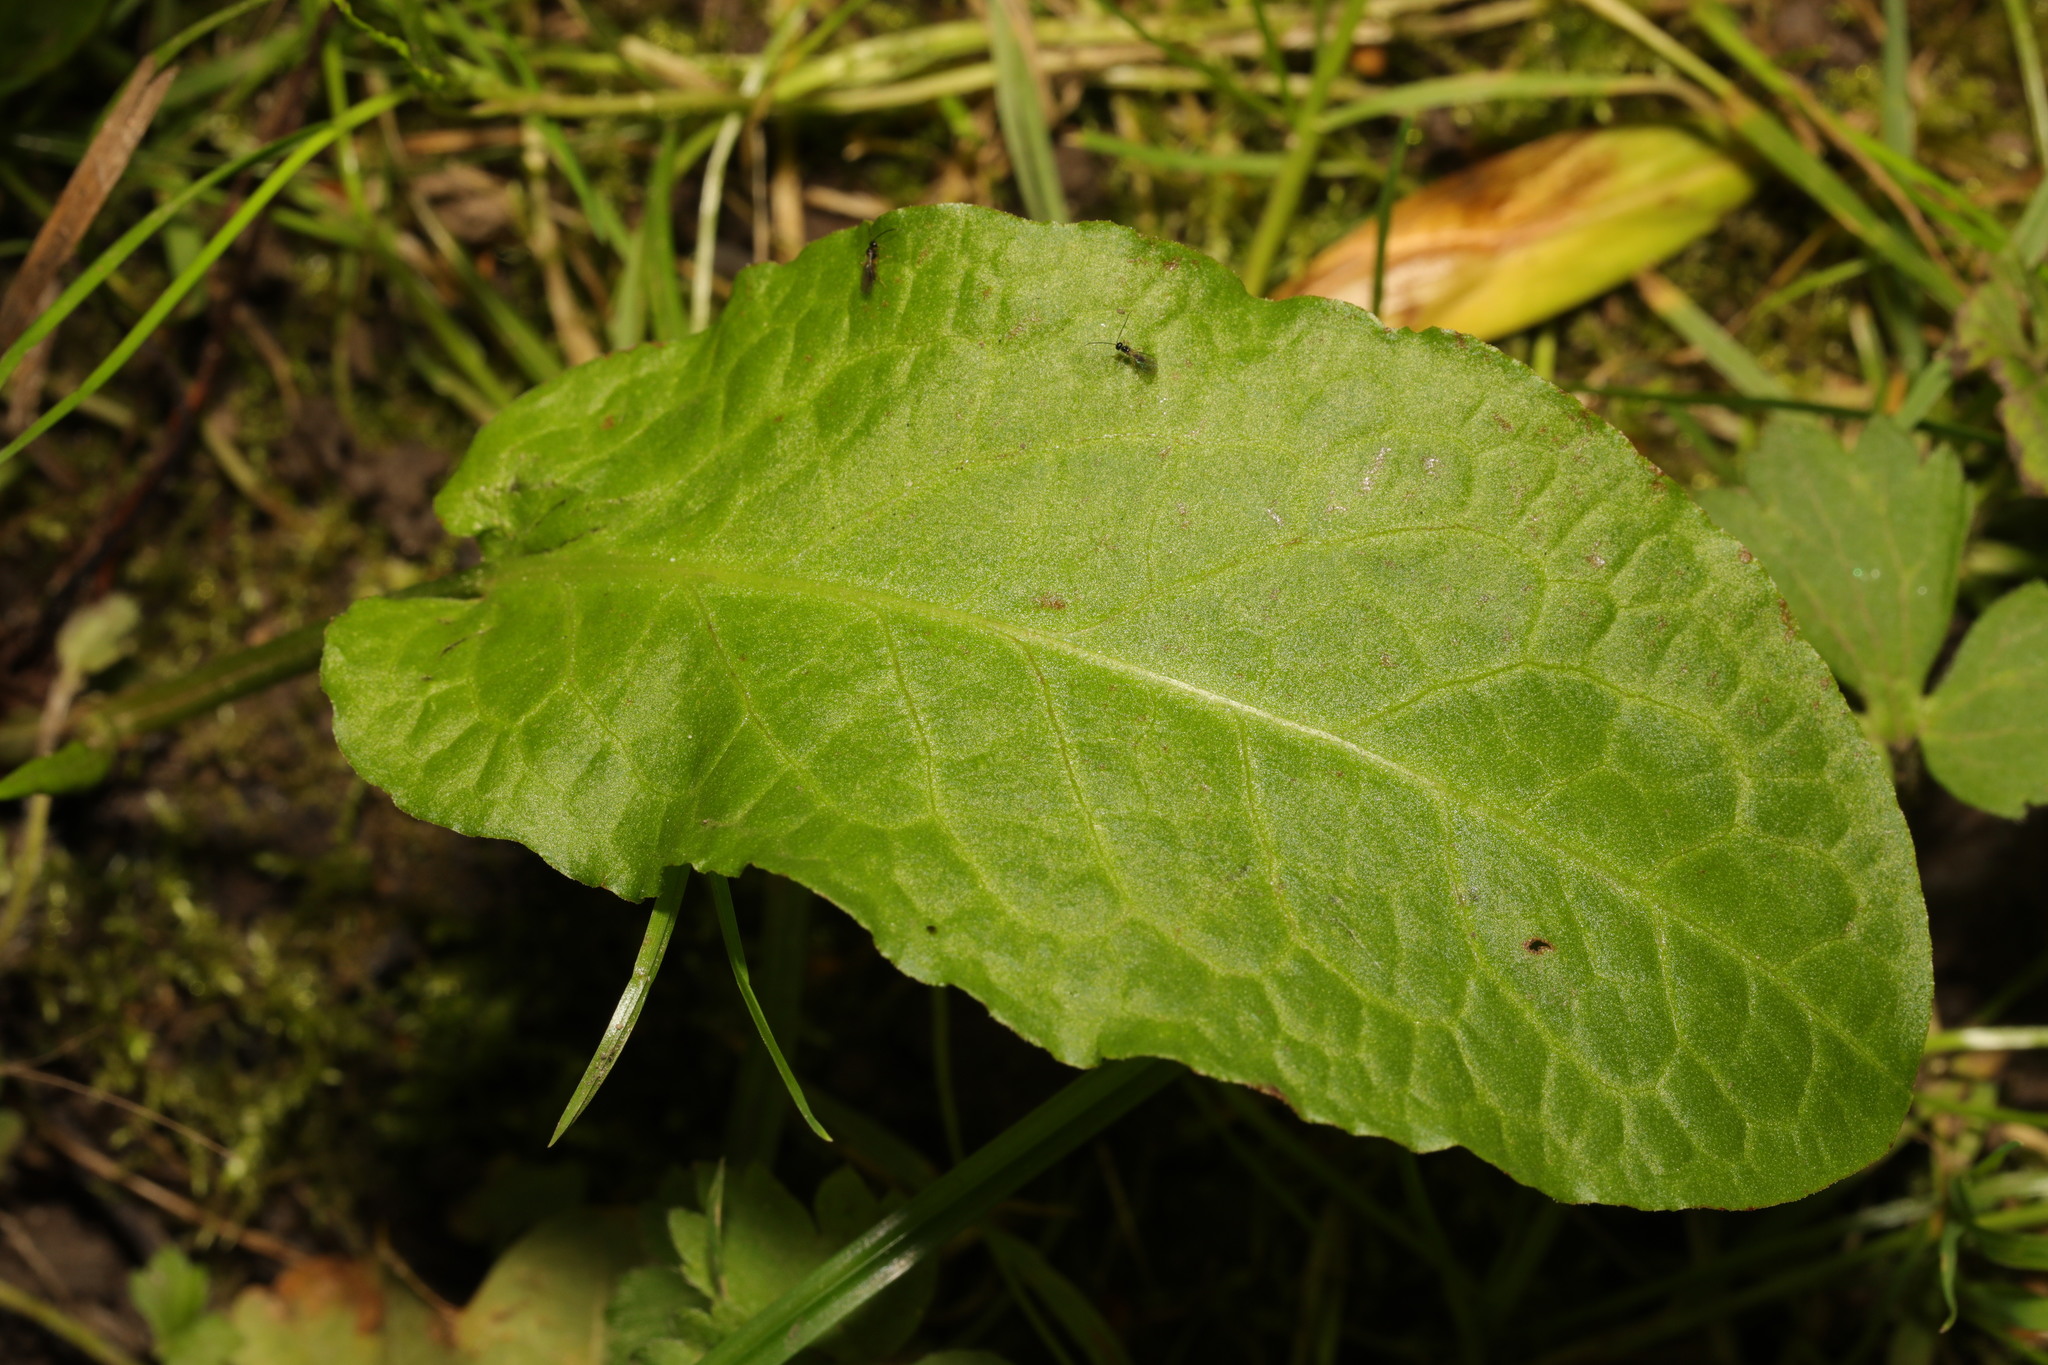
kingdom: Plantae
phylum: Tracheophyta
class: Magnoliopsida
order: Caryophyllales
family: Polygonaceae
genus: Rumex
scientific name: Rumex obtusifolius
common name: Bitter dock
